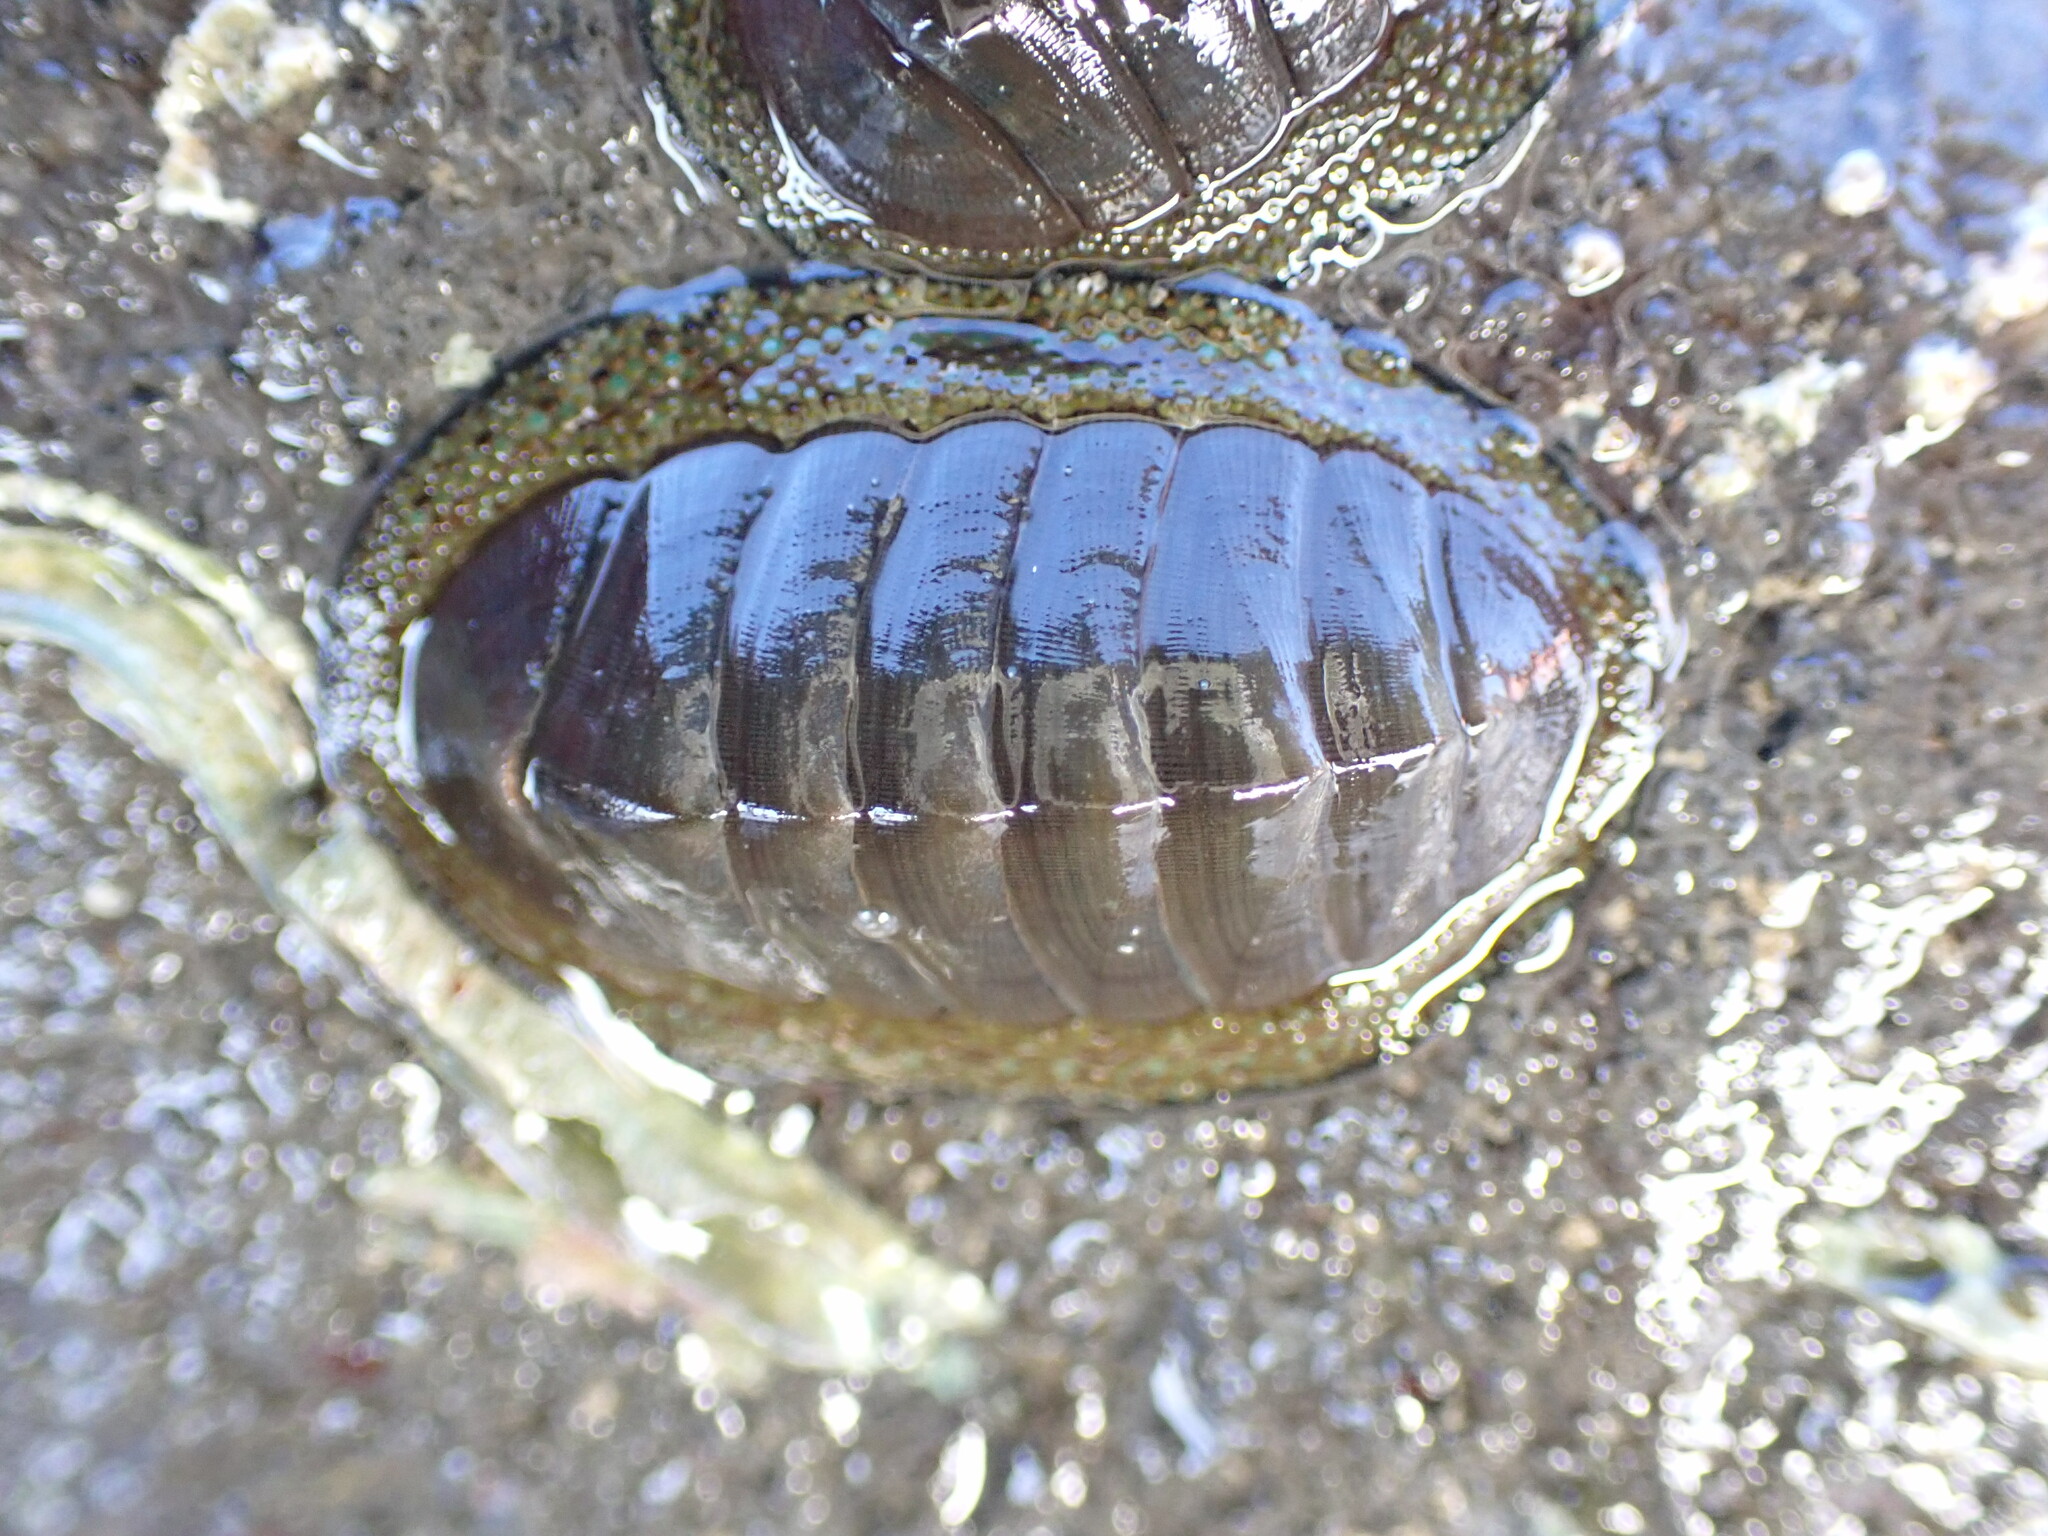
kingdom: Animalia
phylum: Mollusca
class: Polyplacophora
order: Chitonida
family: Chitonidae
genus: Chiton
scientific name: Chiton glaucus
